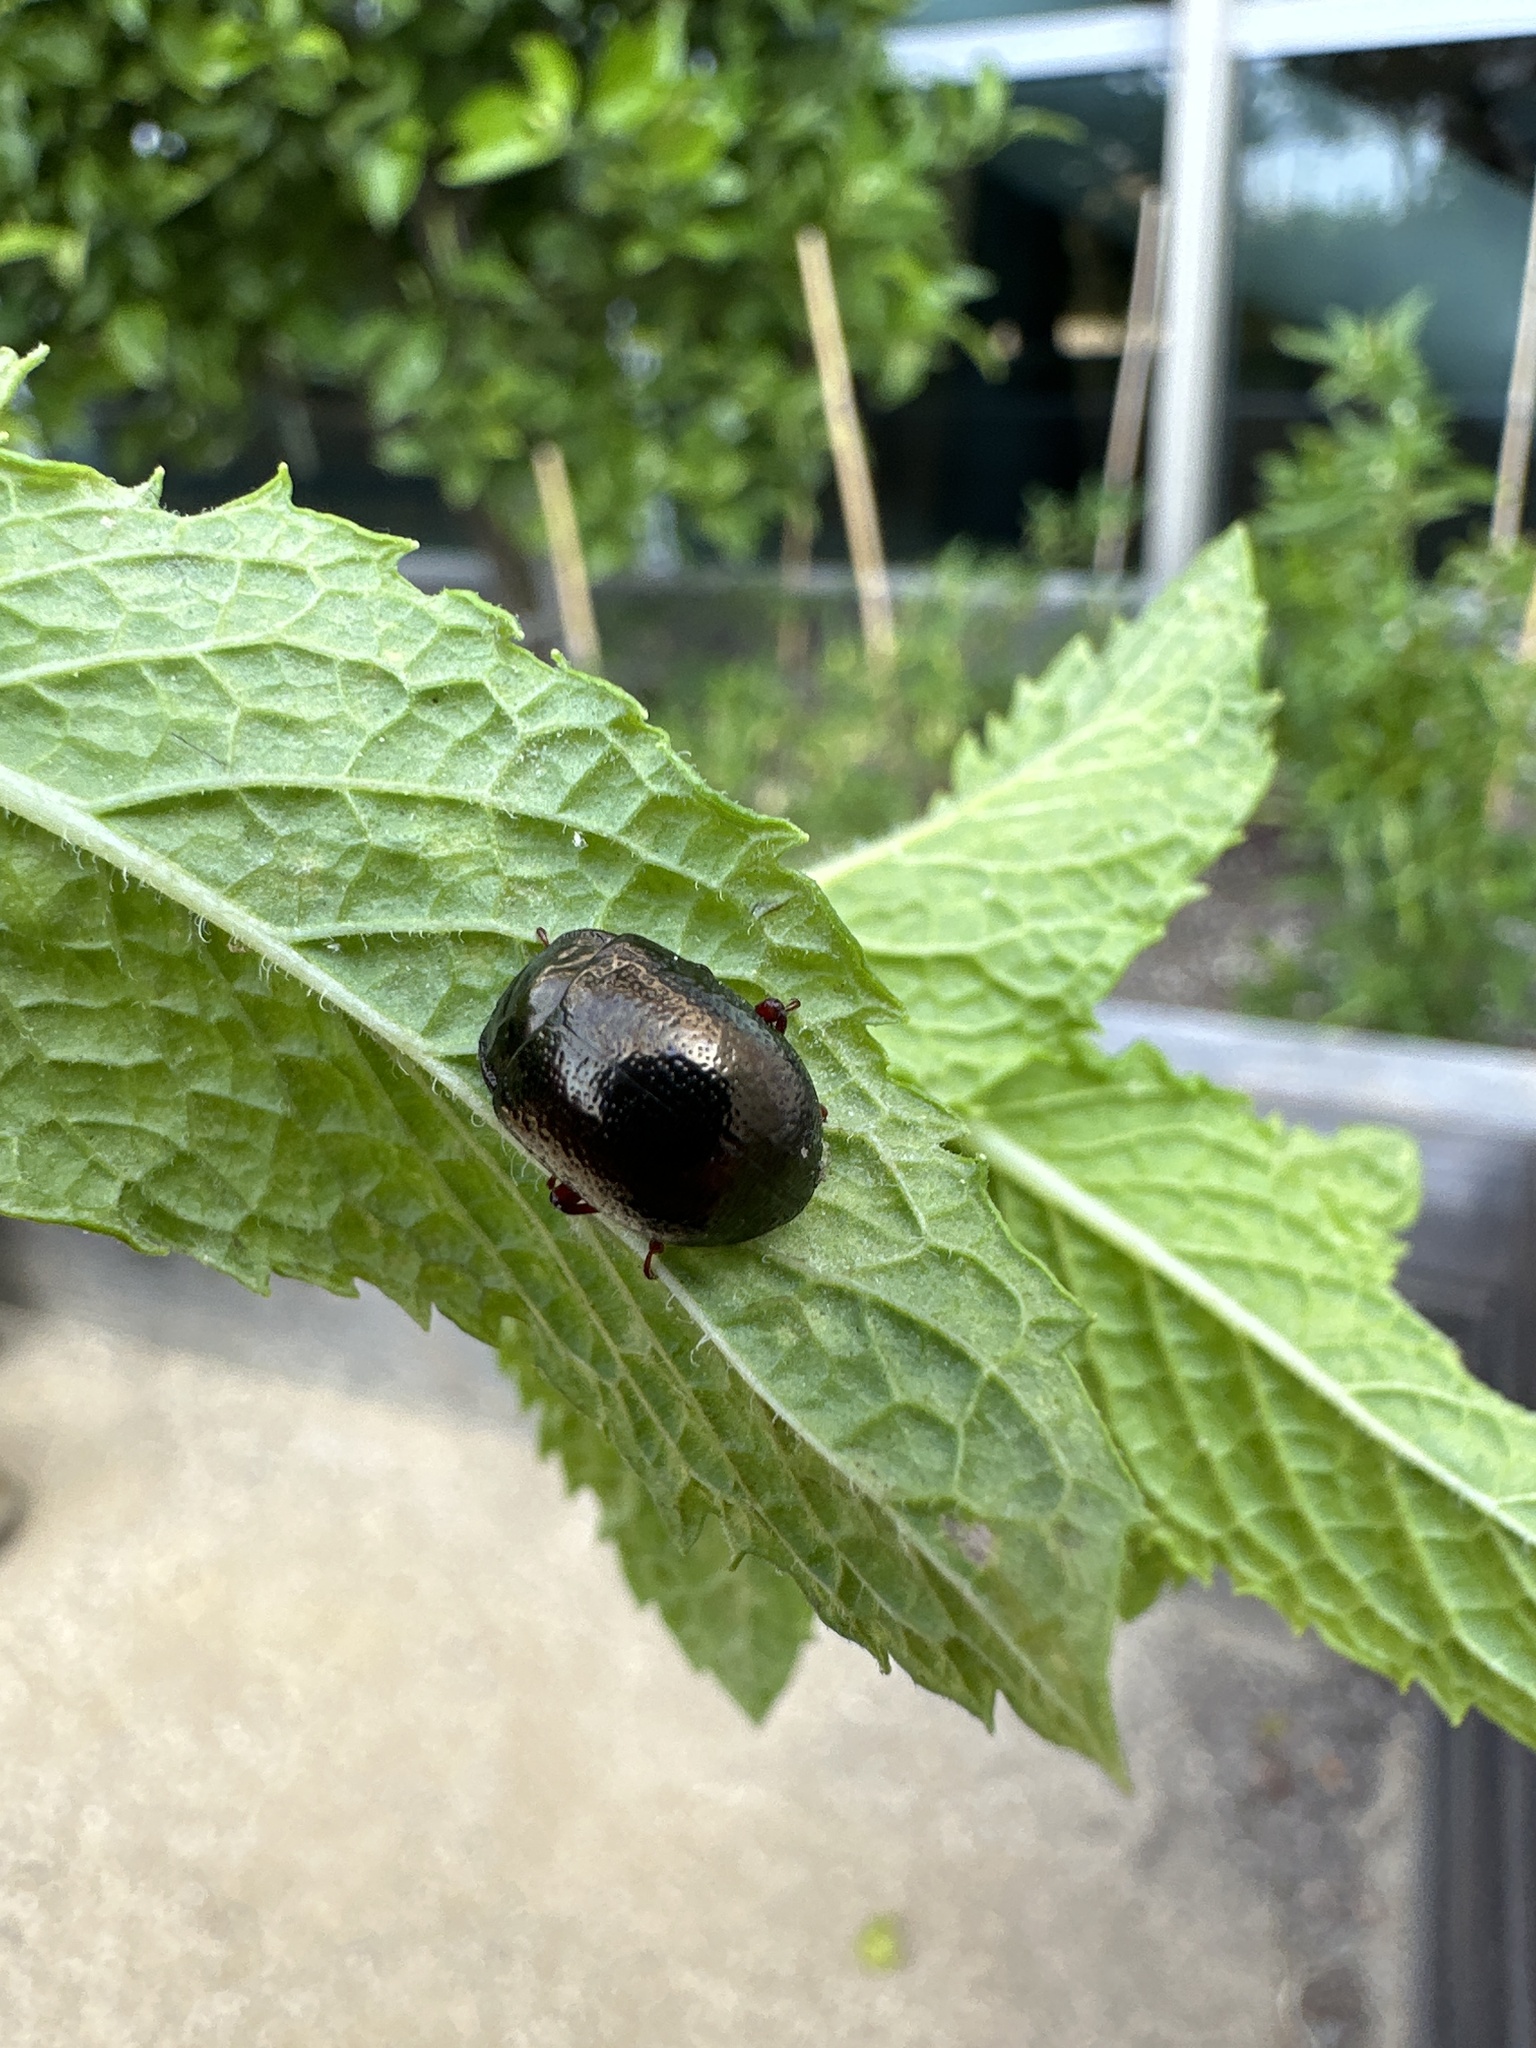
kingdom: Animalia
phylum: Arthropoda
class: Insecta
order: Coleoptera
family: Chrysomelidae
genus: Chrysolina
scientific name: Chrysolina bankii
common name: Leaf beetle
